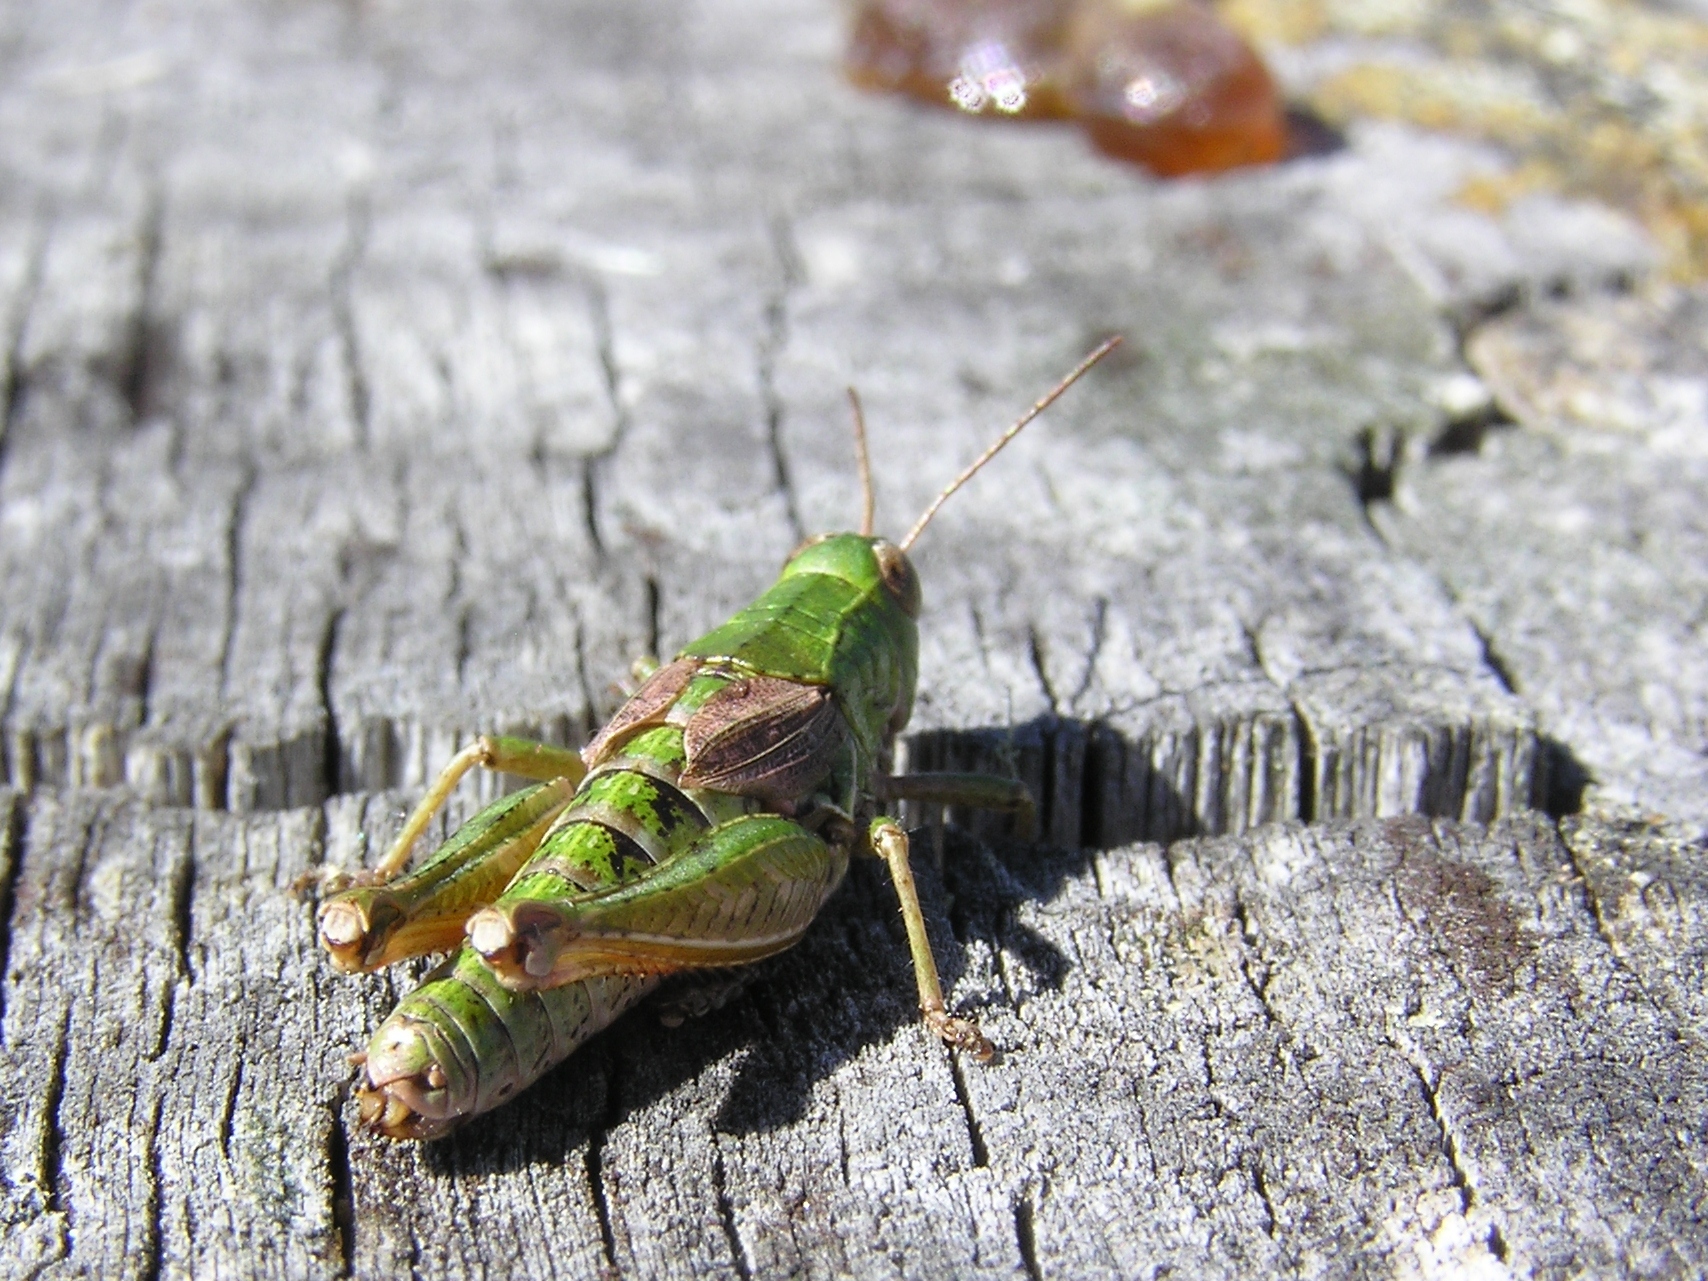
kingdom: Animalia
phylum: Arthropoda
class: Insecta
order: Orthoptera
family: Acrididae
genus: Phaulacridium
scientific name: Phaulacridium marginale
